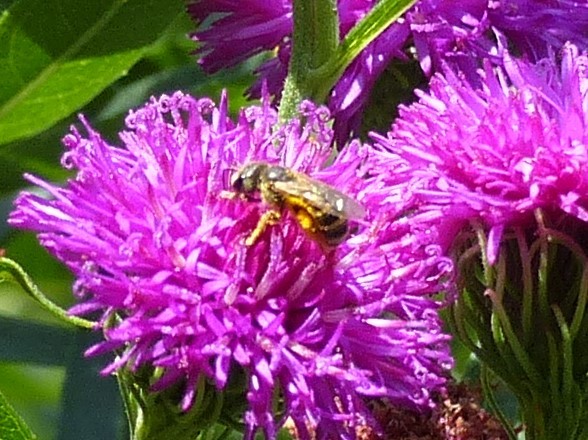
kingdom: Animalia
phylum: Arthropoda
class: Insecta
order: Hymenoptera
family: Halictidae
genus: Halictus
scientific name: Halictus ligatus
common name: Ligated furrow bee
